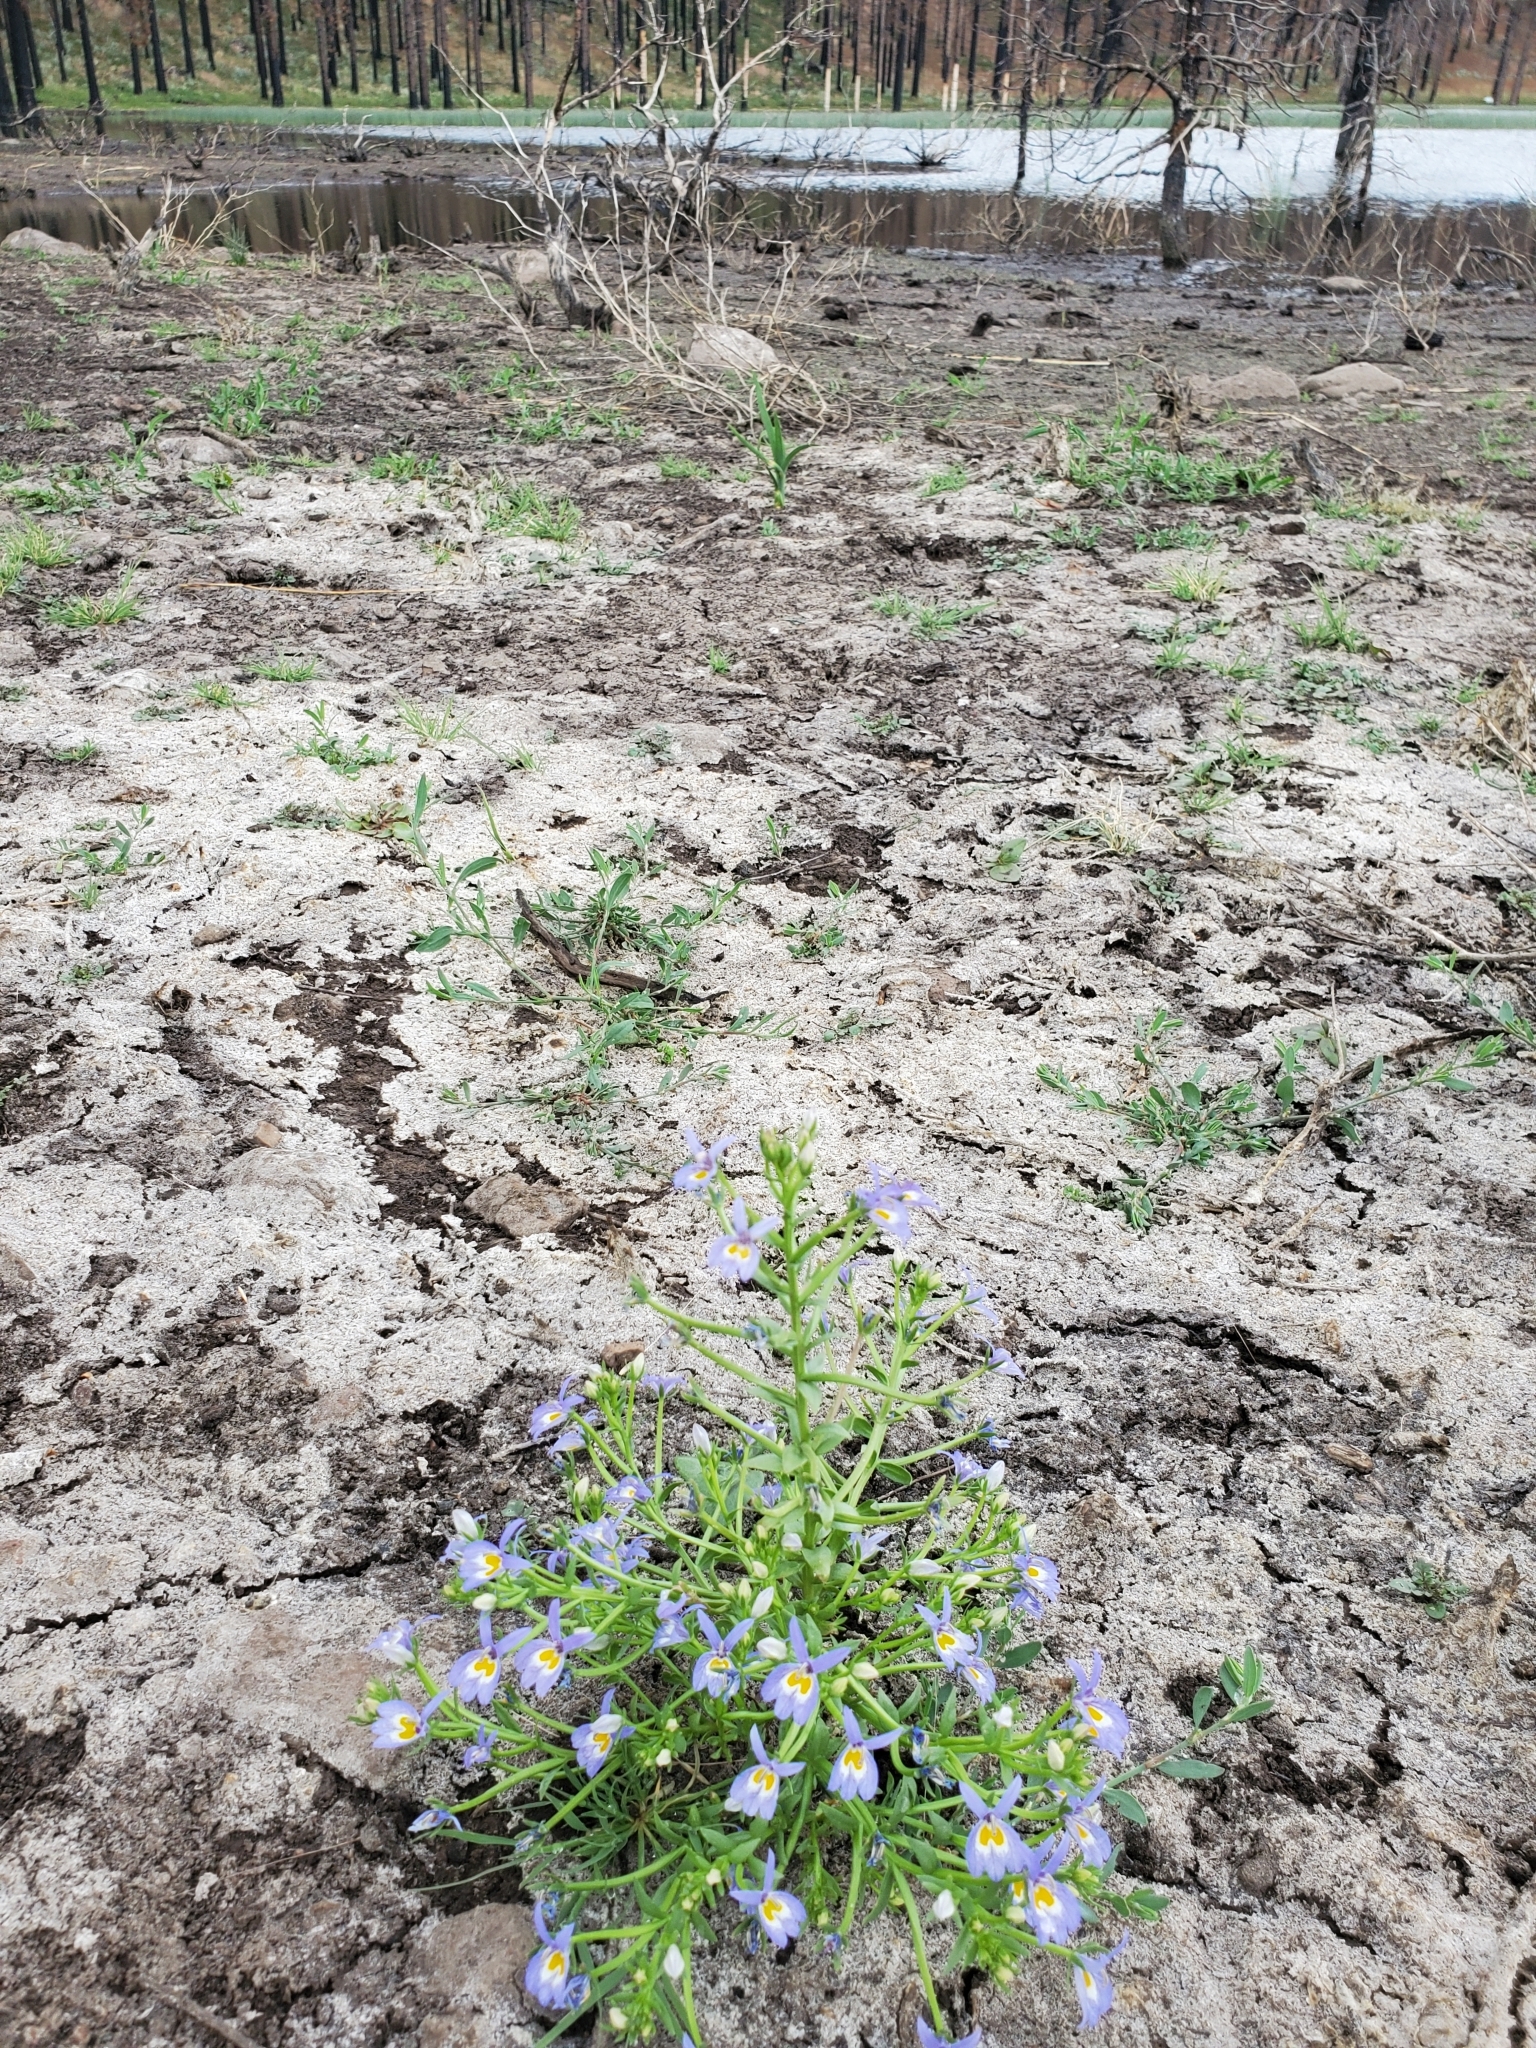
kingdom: Plantae
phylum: Tracheophyta
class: Magnoliopsida
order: Asterales
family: Campanulaceae
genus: Downingia
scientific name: Downingia bacigalupii
